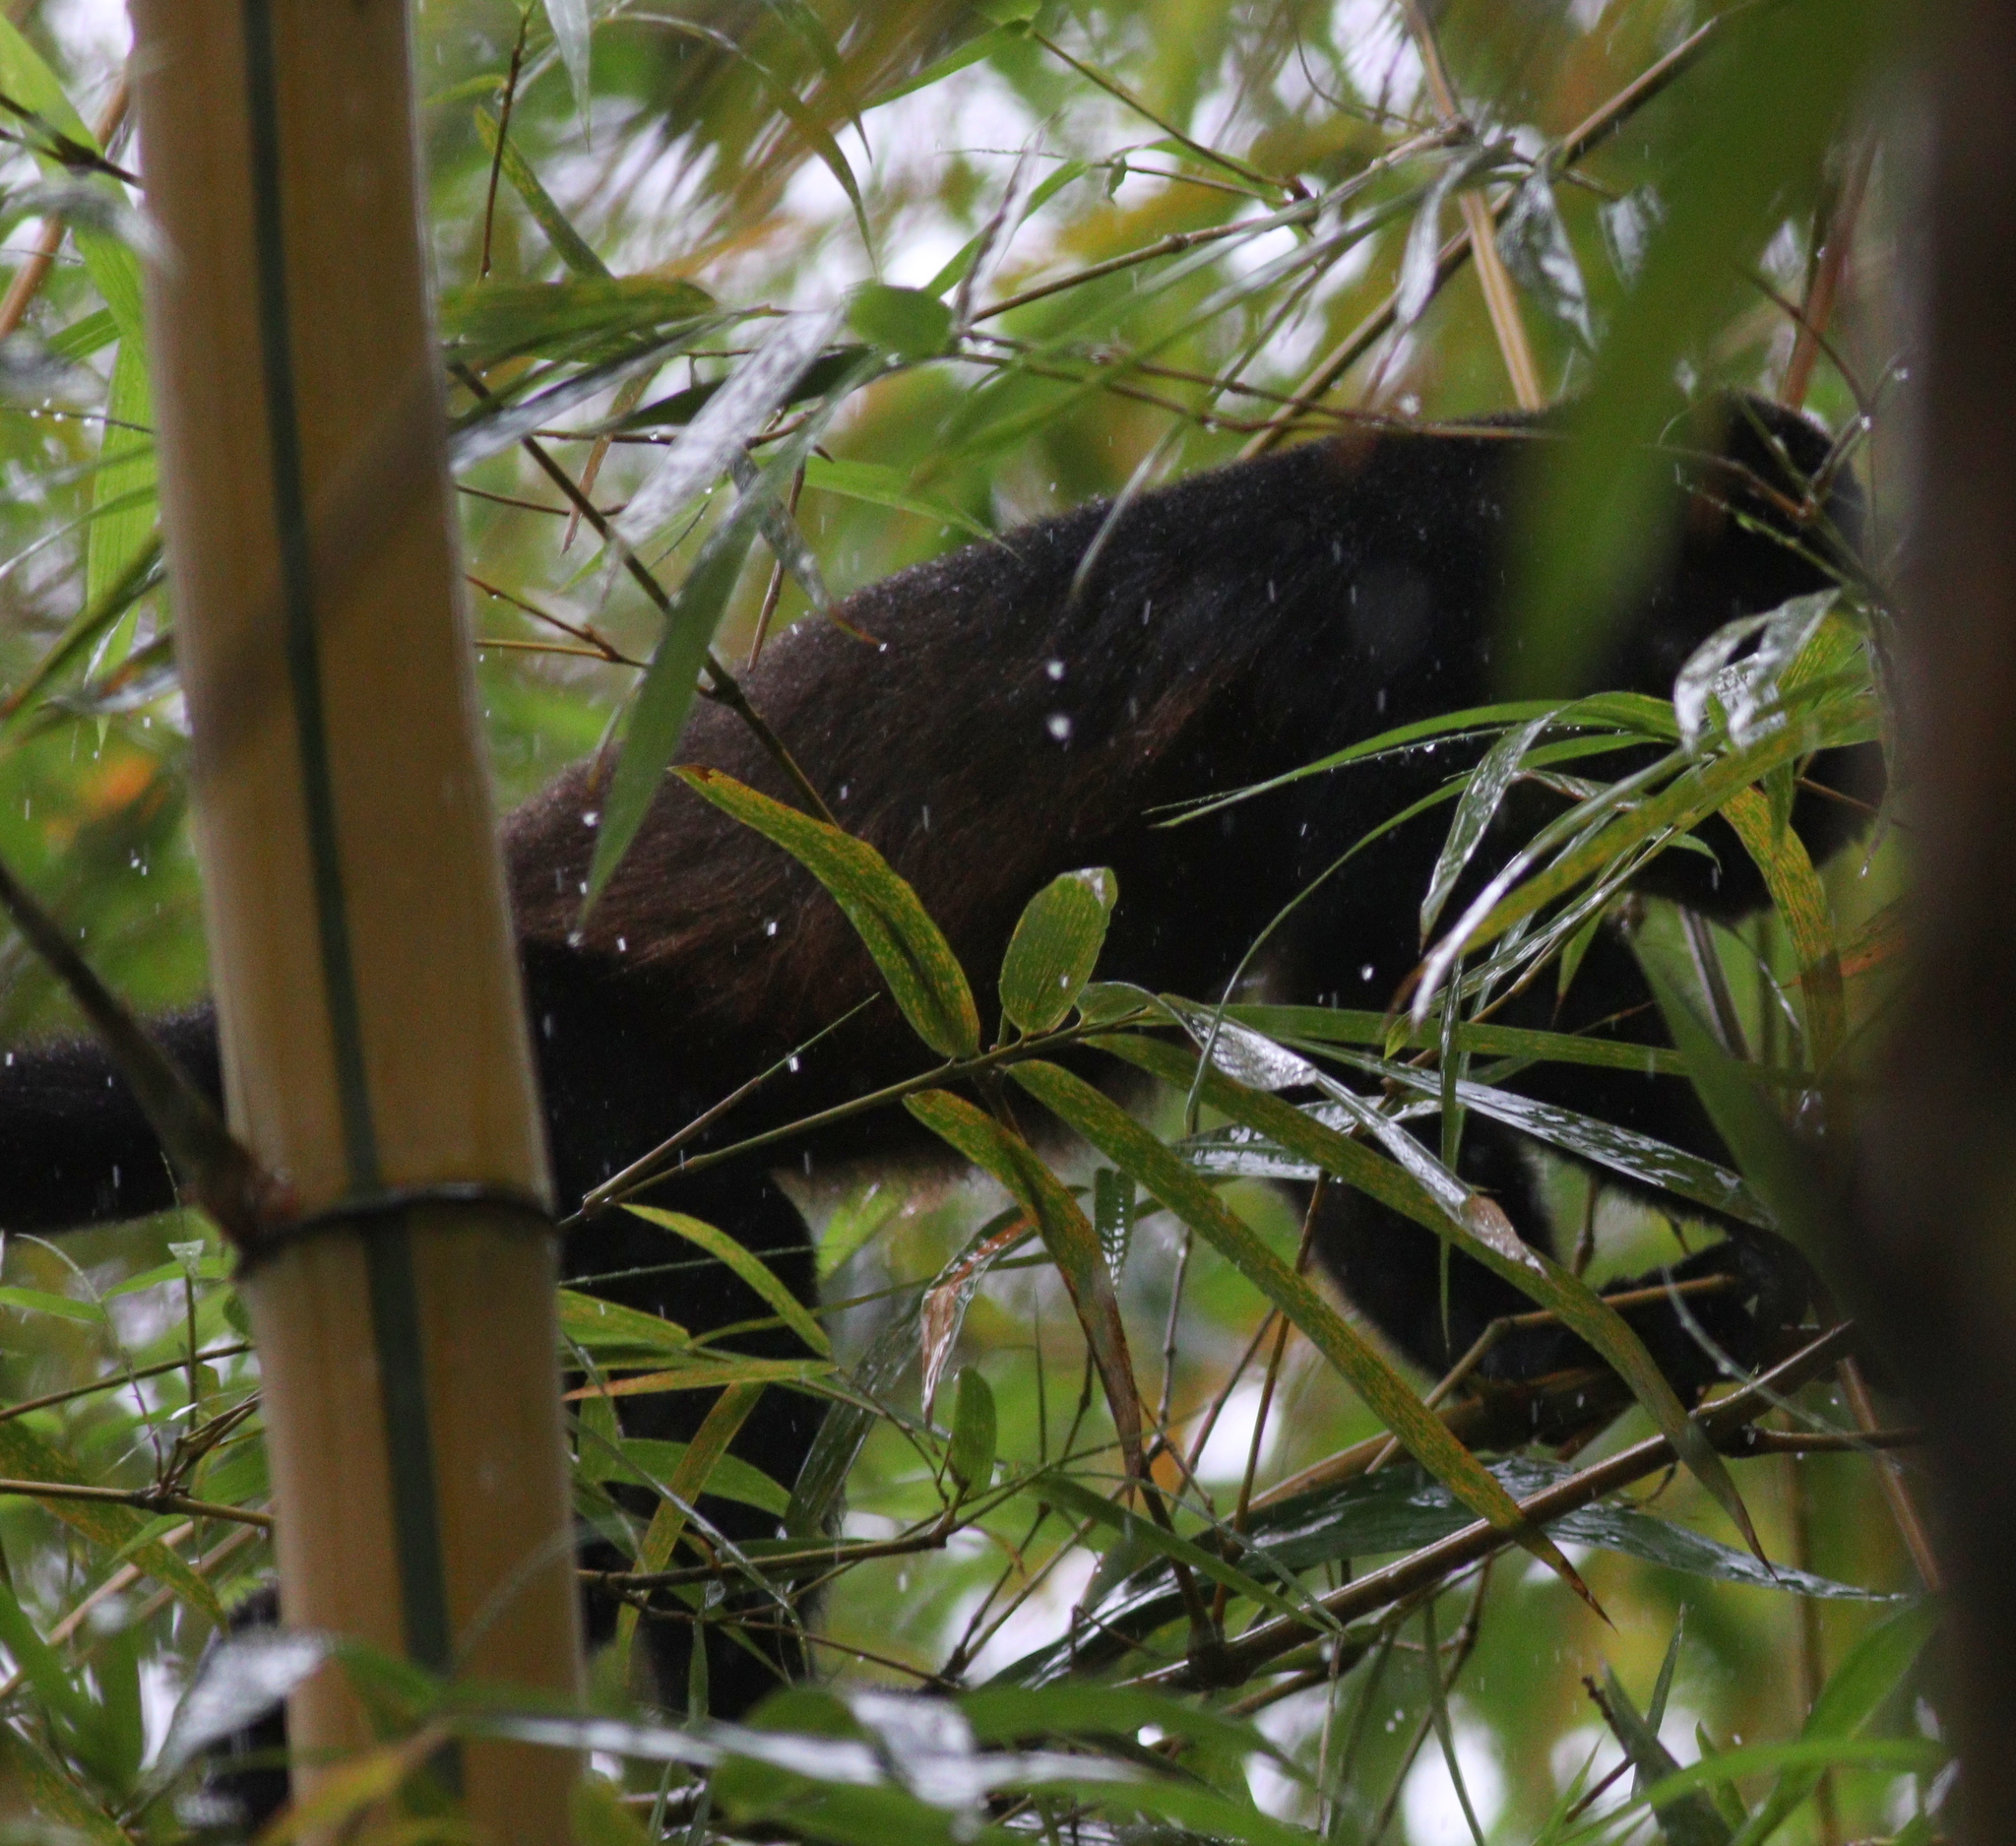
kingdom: Animalia
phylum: Chordata
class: Mammalia
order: Primates
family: Atelidae
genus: Alouatta
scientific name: Alouatta palliata
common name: Mantled howler
